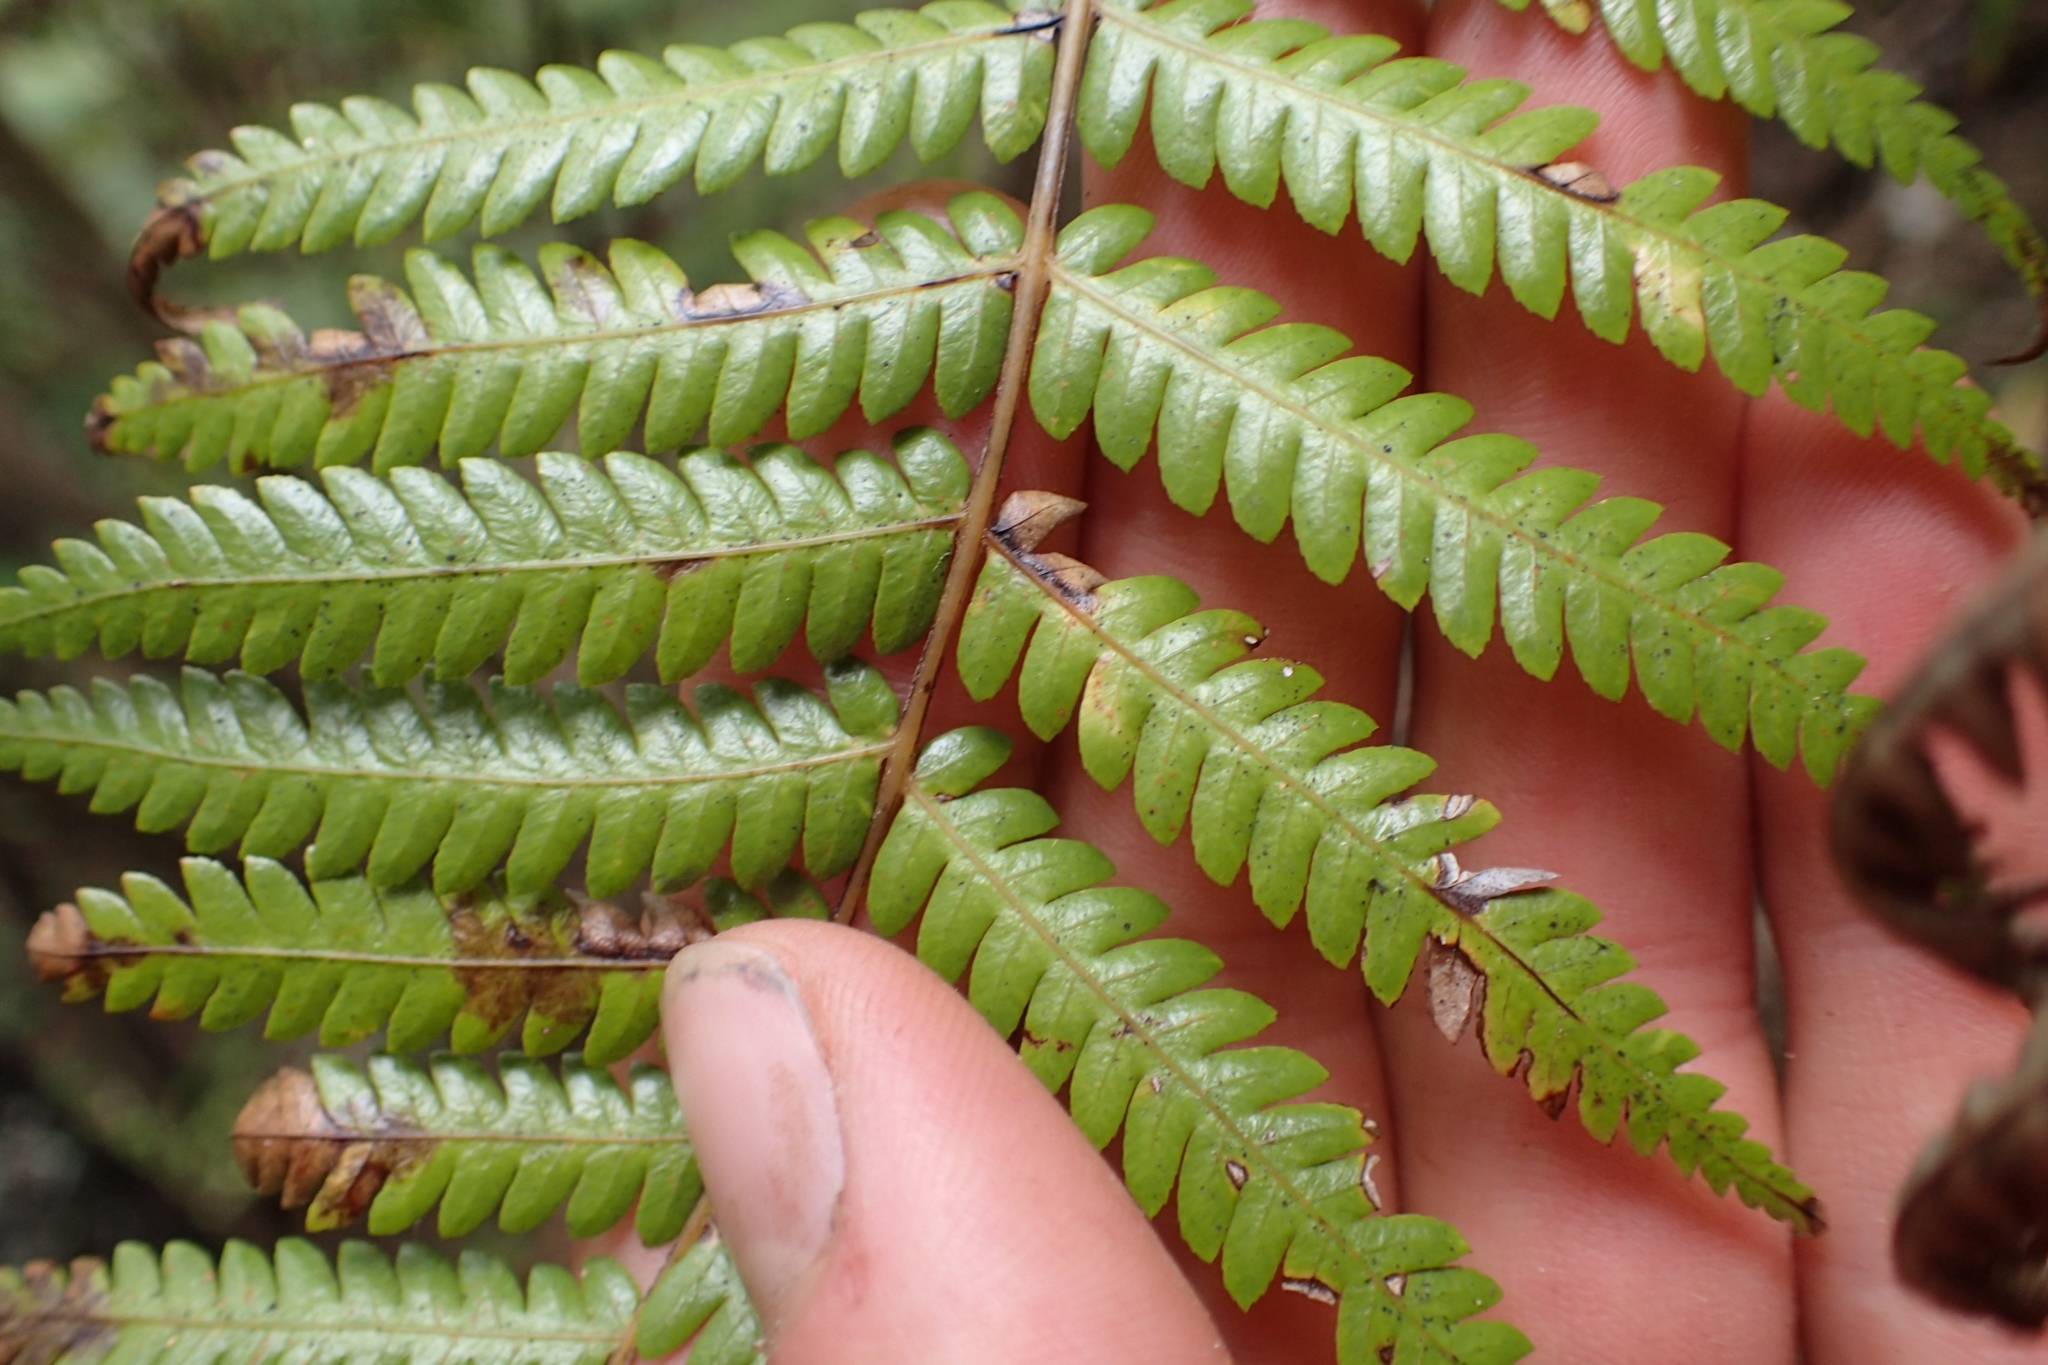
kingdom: Plantae
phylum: Tracheophyta
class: Polypodiopsida
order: Cyatheales
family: Cyatheaceae
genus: Alsophila
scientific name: Alsophila dealbata
